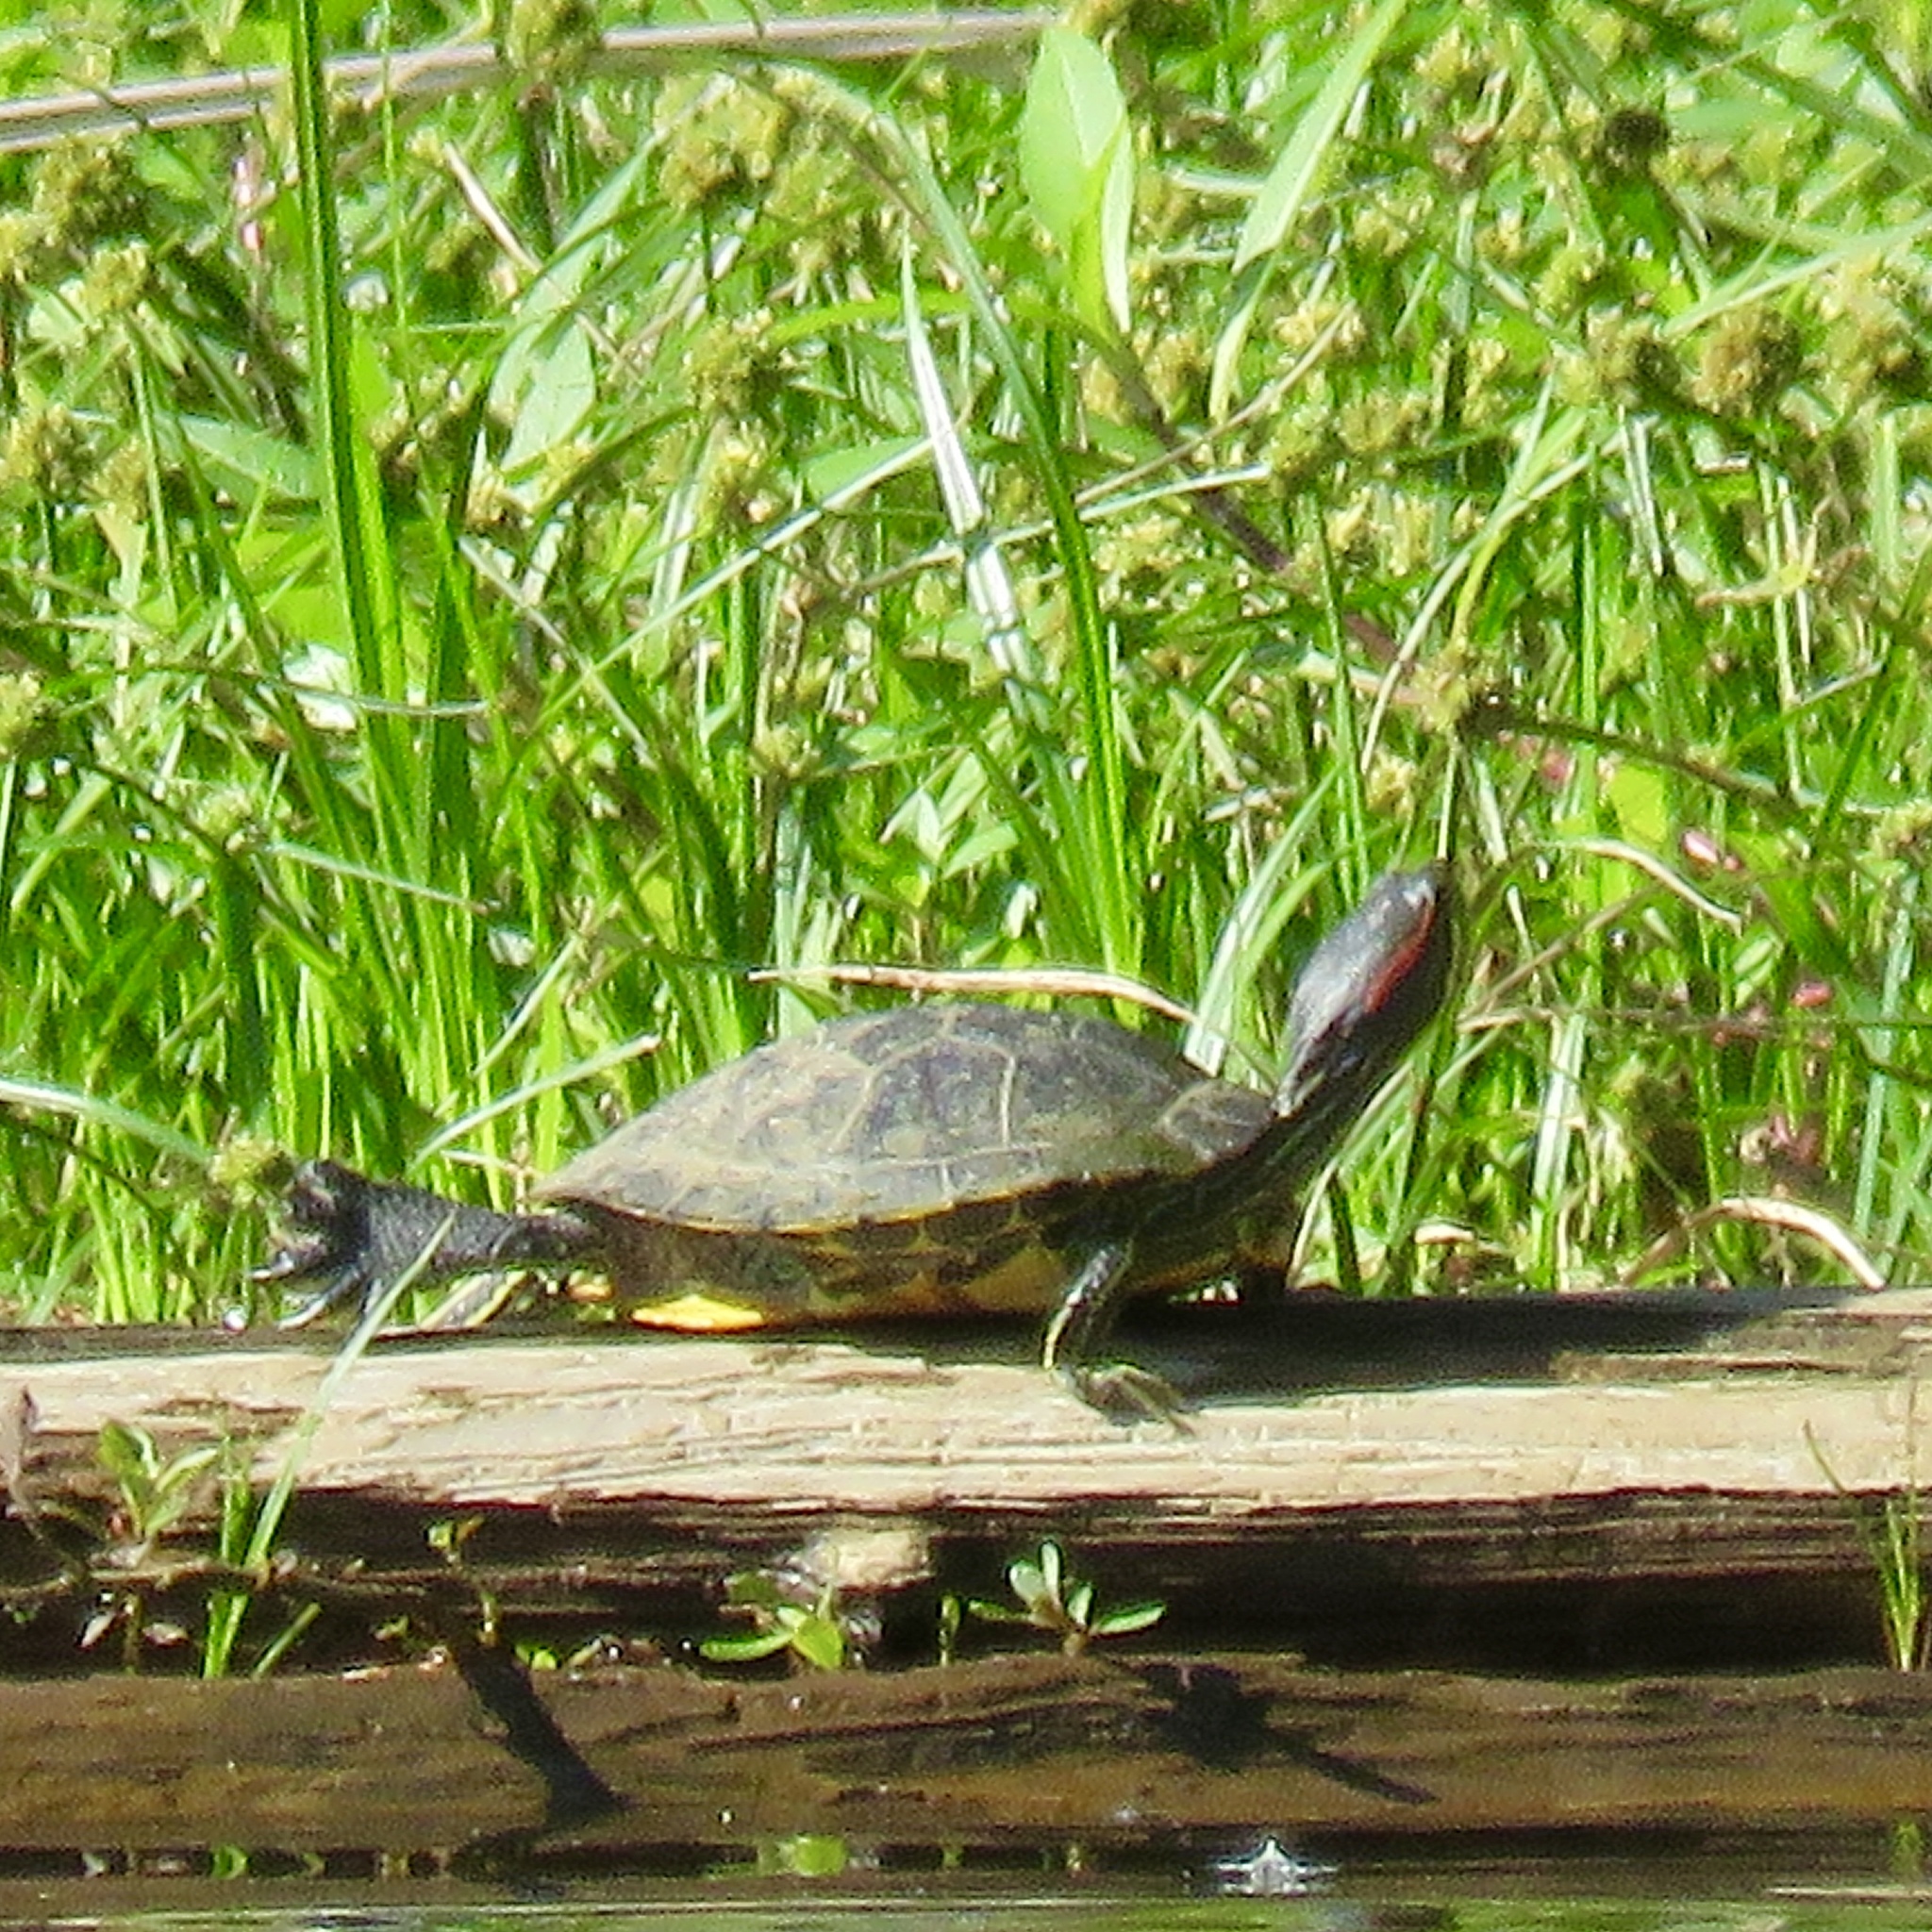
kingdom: Animalia
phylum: Chordata
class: Testudines
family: Emydidae
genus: Trachemys
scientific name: Trachemys scripta
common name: Slider
